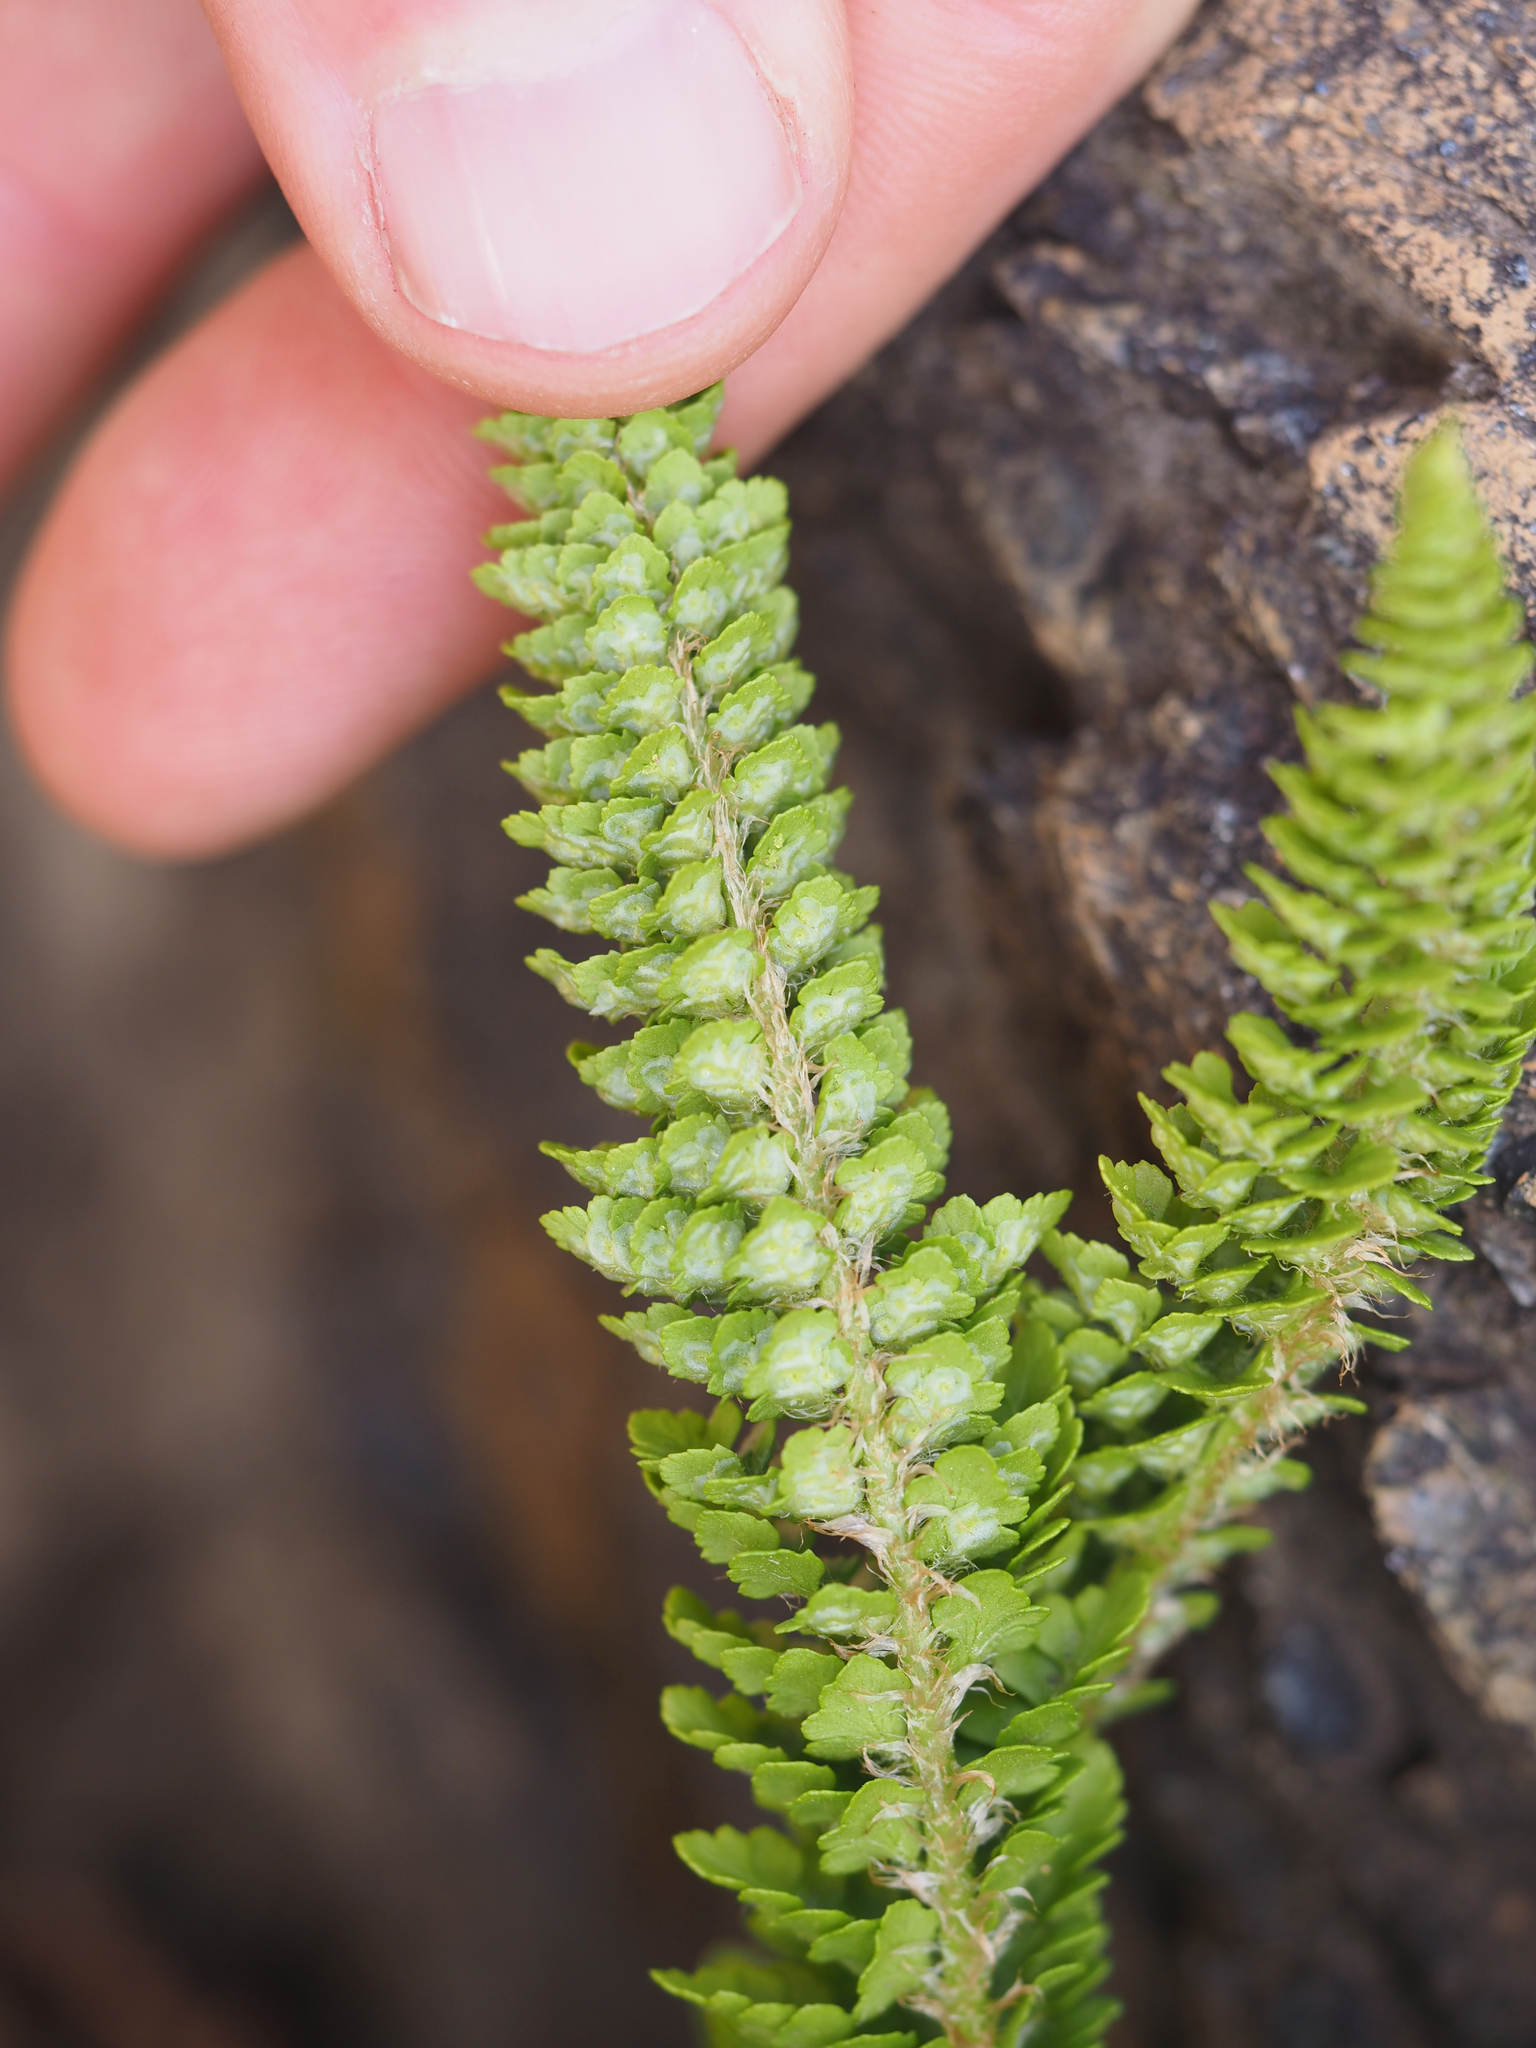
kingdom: Plantae
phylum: Tracheophyta
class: Polypodiopsida
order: Polypodiales
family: Dryopteridaceae
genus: Polystichum
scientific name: Polystichum lemmonii
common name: Lemmon's holly fern
